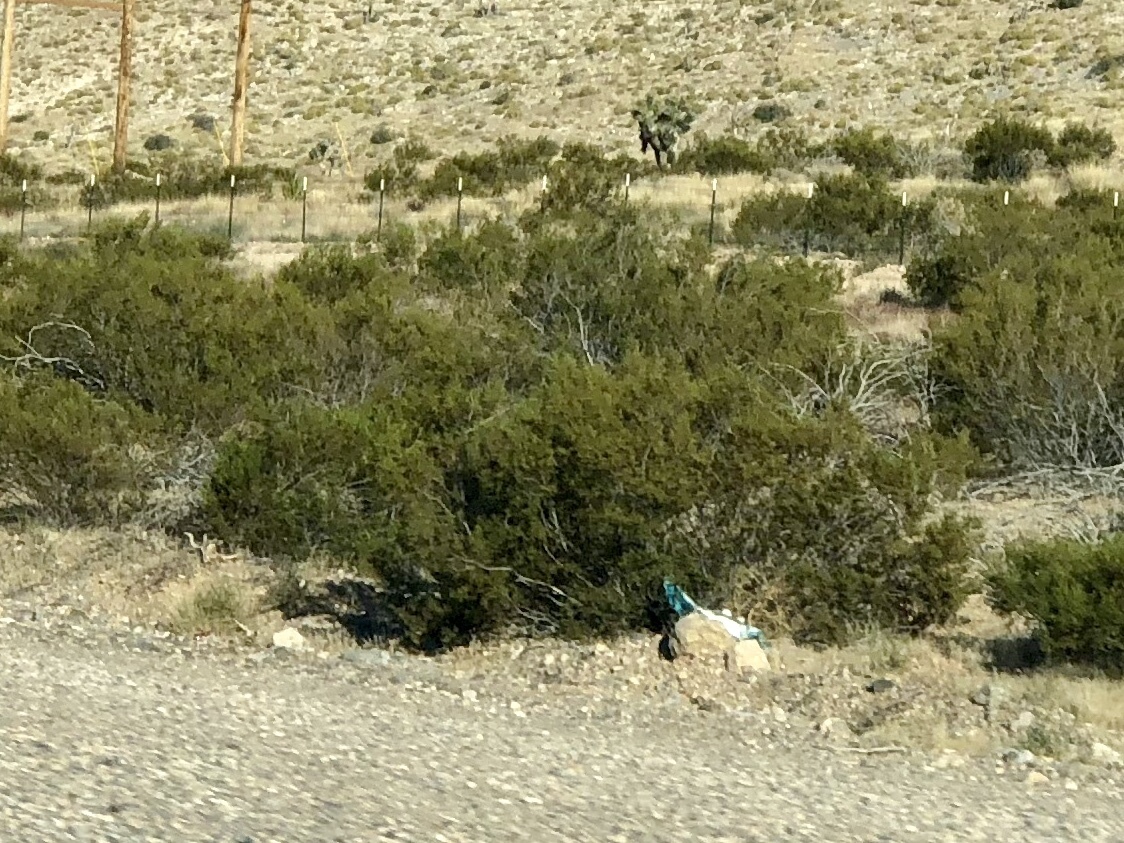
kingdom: Plantae
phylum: Tracheophyta
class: Magnoliopsida
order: Zygophyllales
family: Zygophyllaceae
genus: Larrea
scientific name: Larrea tridentata
